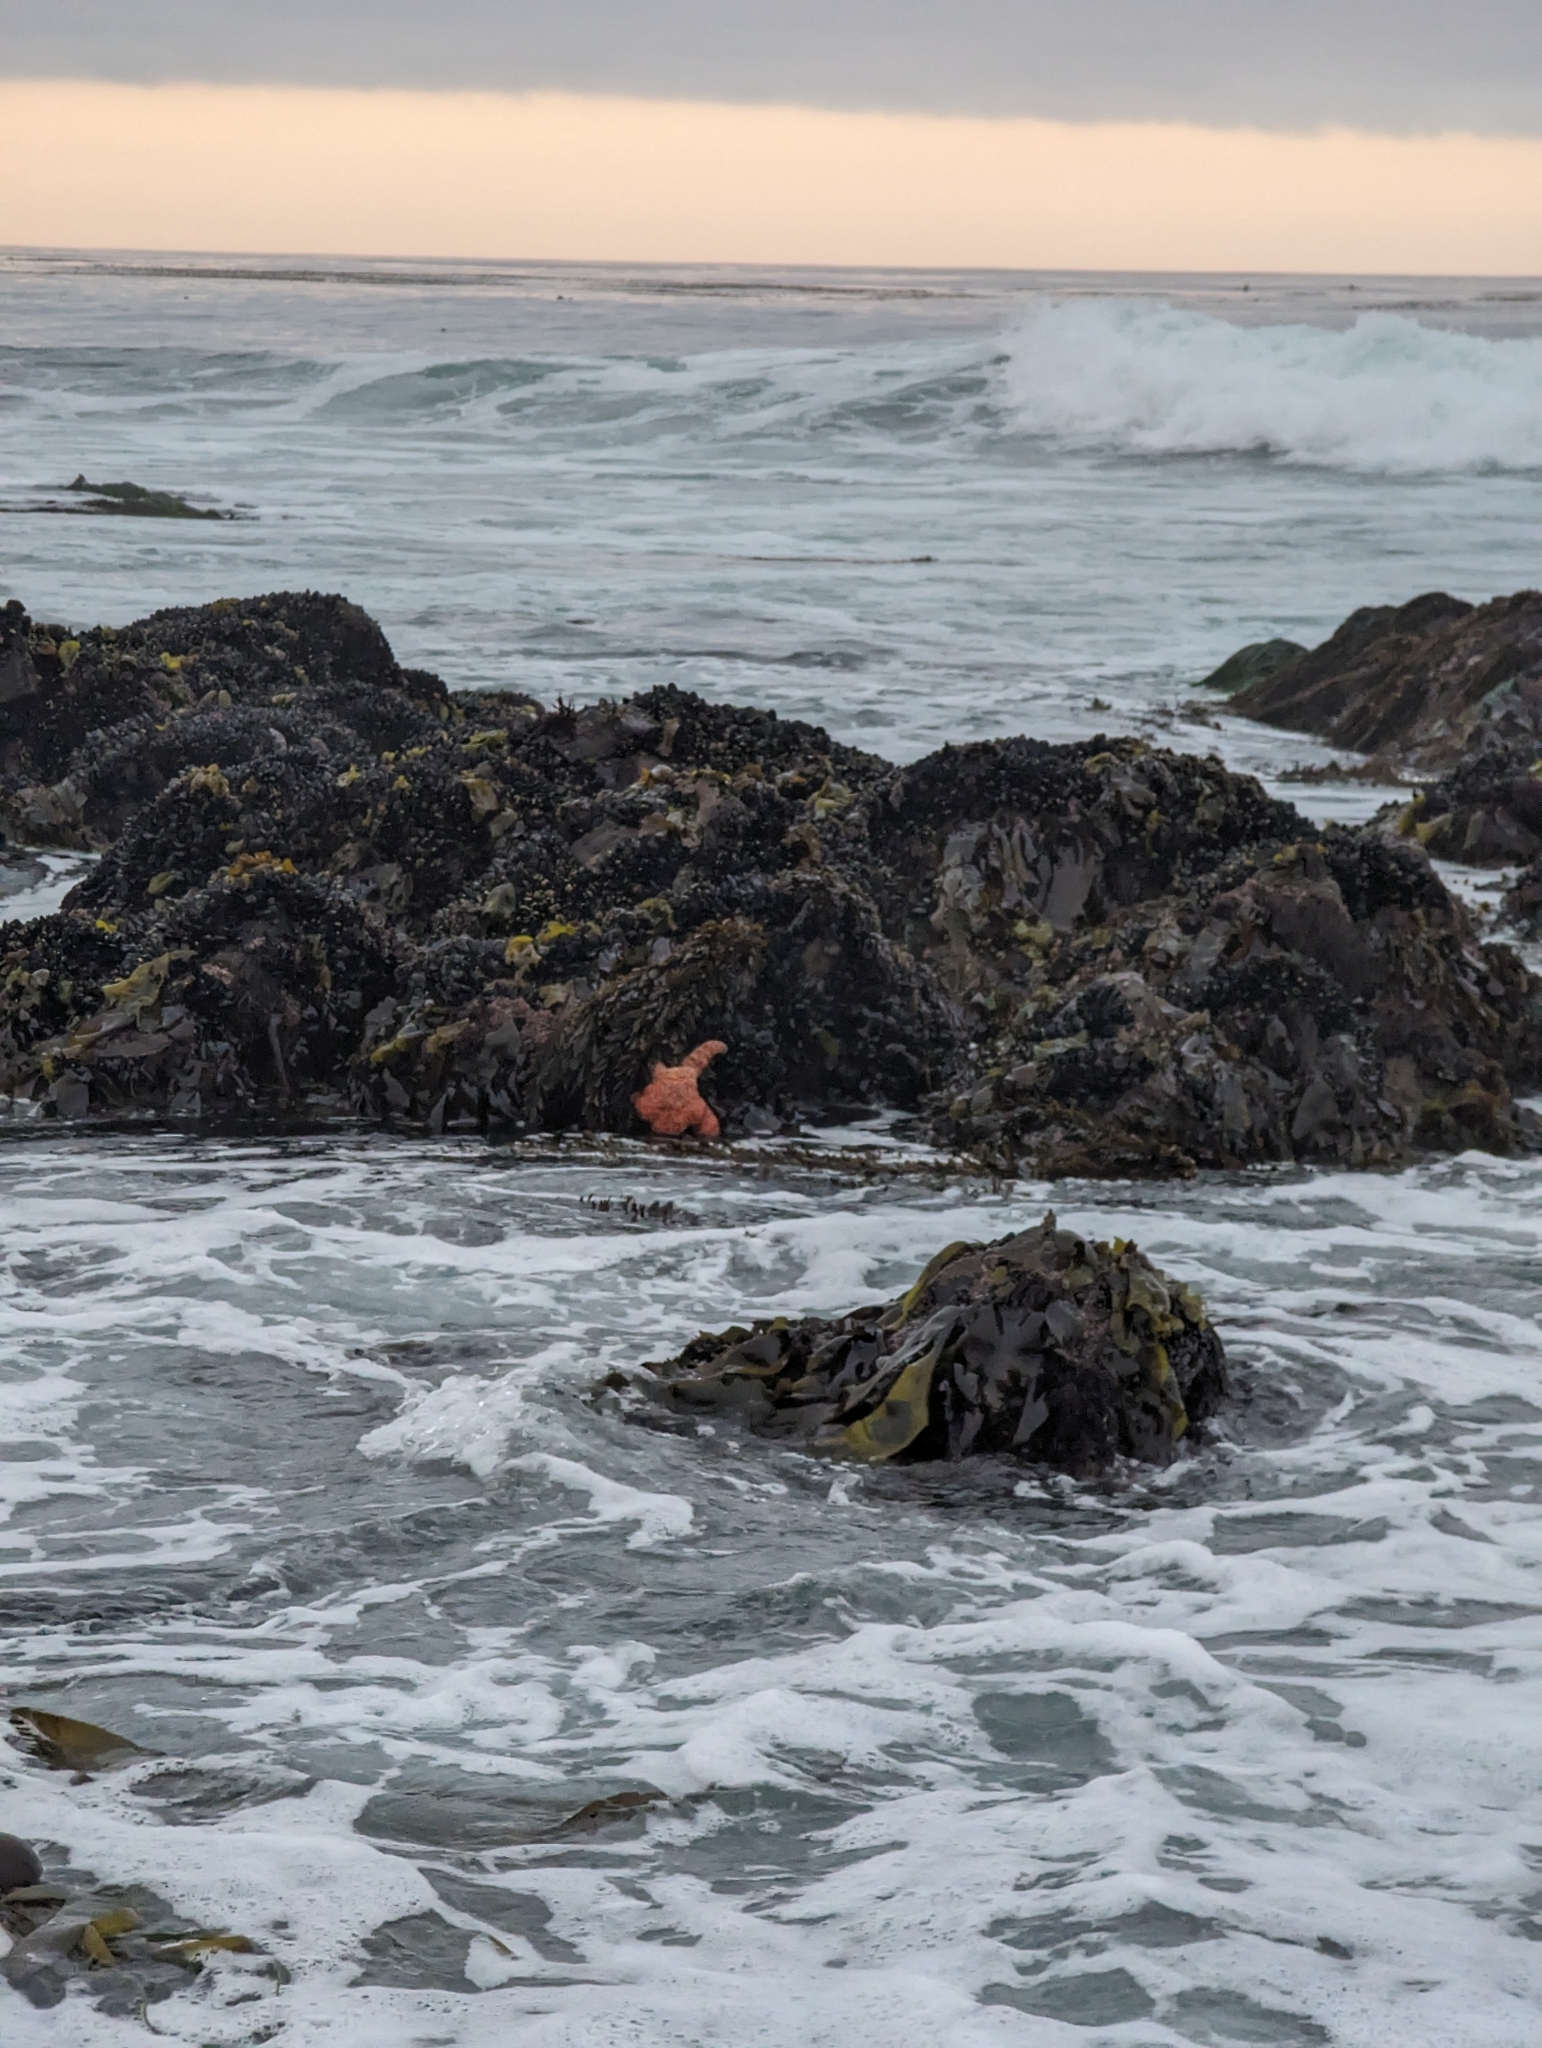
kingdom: Animalia
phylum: Echinodermata
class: Asteroidea
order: Forcipulatida
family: Asteriidae
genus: Pisaster
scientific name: Pisaster ochraceus
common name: Ochre stars
